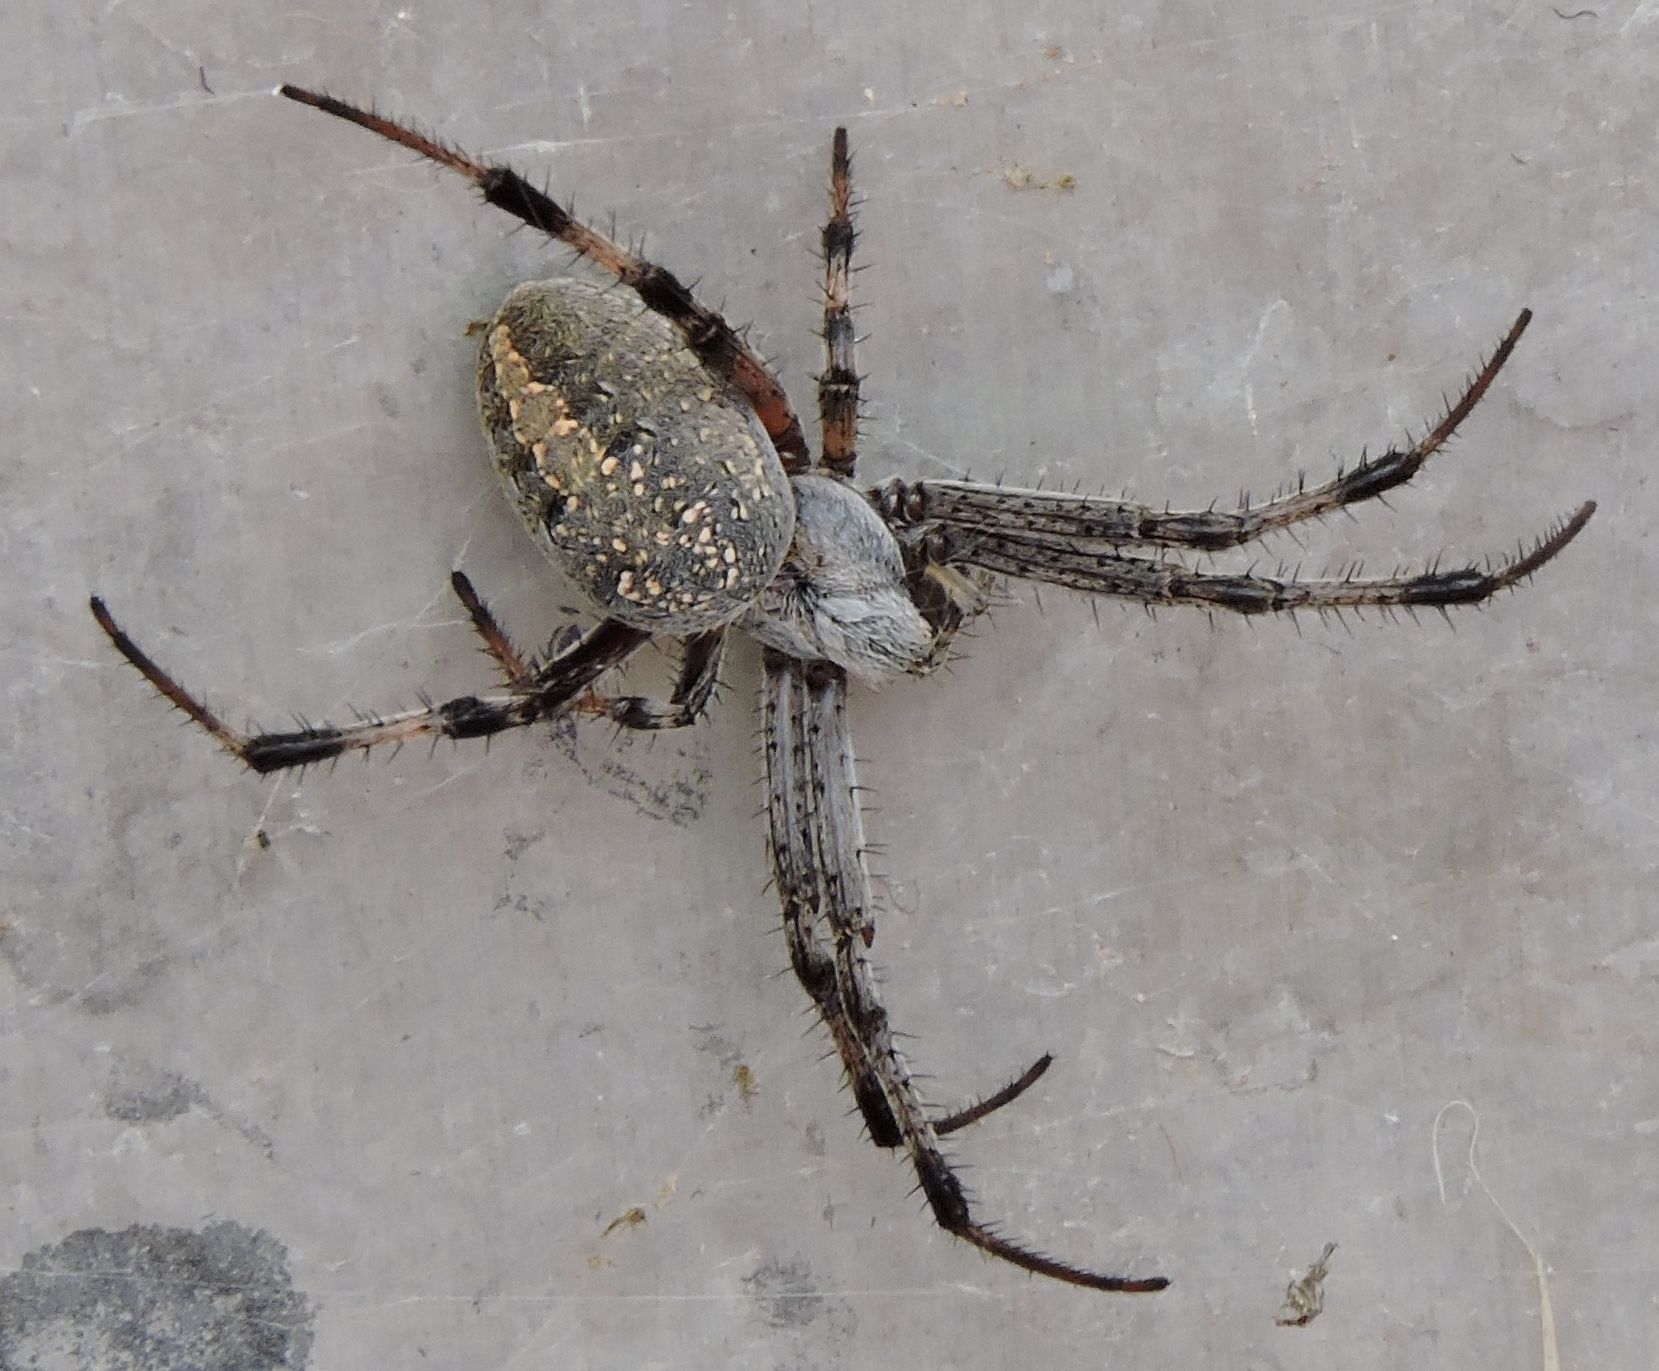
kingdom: Animalia
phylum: Arthropoda
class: Arachnida
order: Araneae
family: Araneidae
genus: Neoscona
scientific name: Neoscona oaxacensis
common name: Orb weavers
